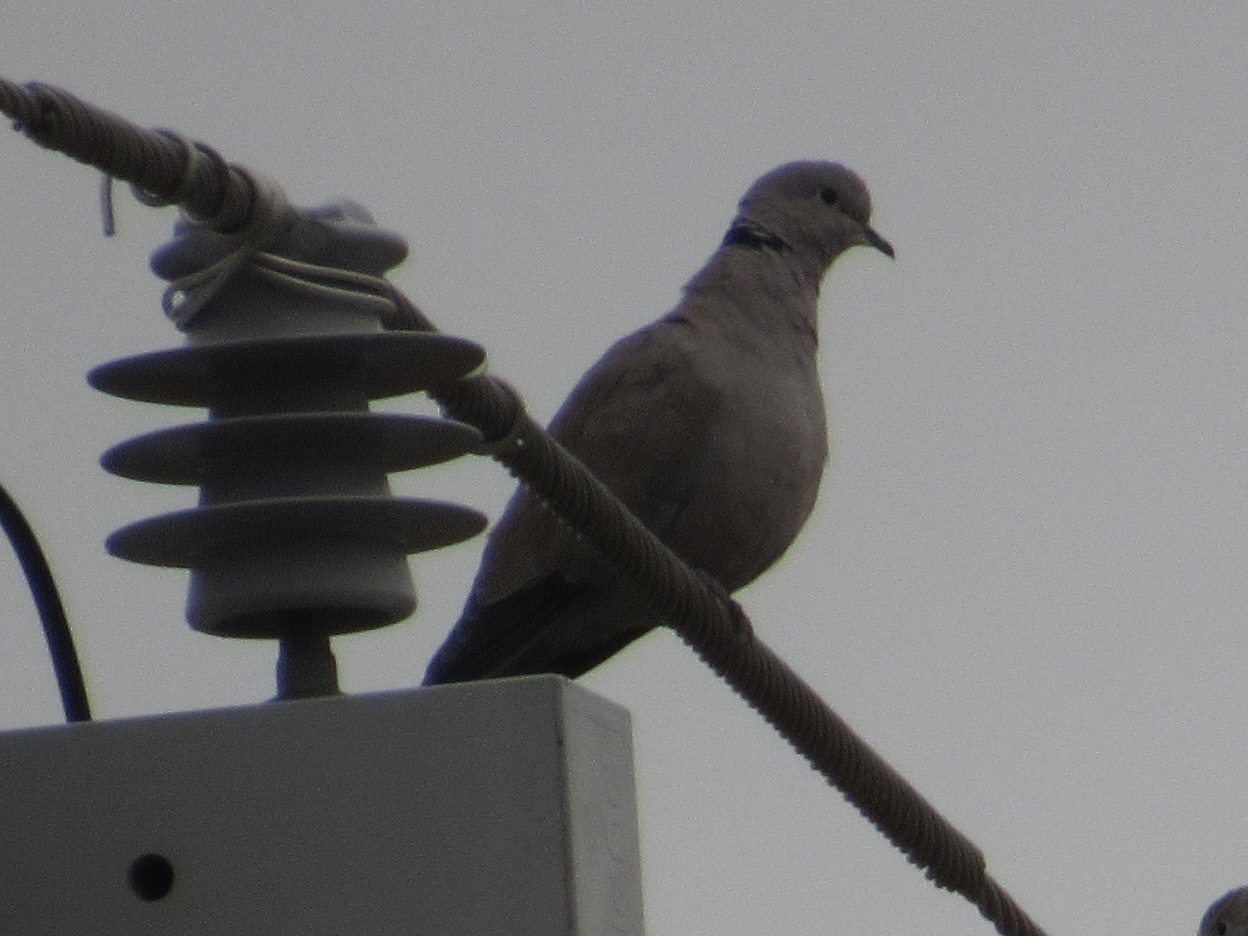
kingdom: Animalia
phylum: Chordata
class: Aves
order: Columbiformes
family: Columbidae
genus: Streptopelia
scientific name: Streptopelia decaocto
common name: Eurasian collared dove
